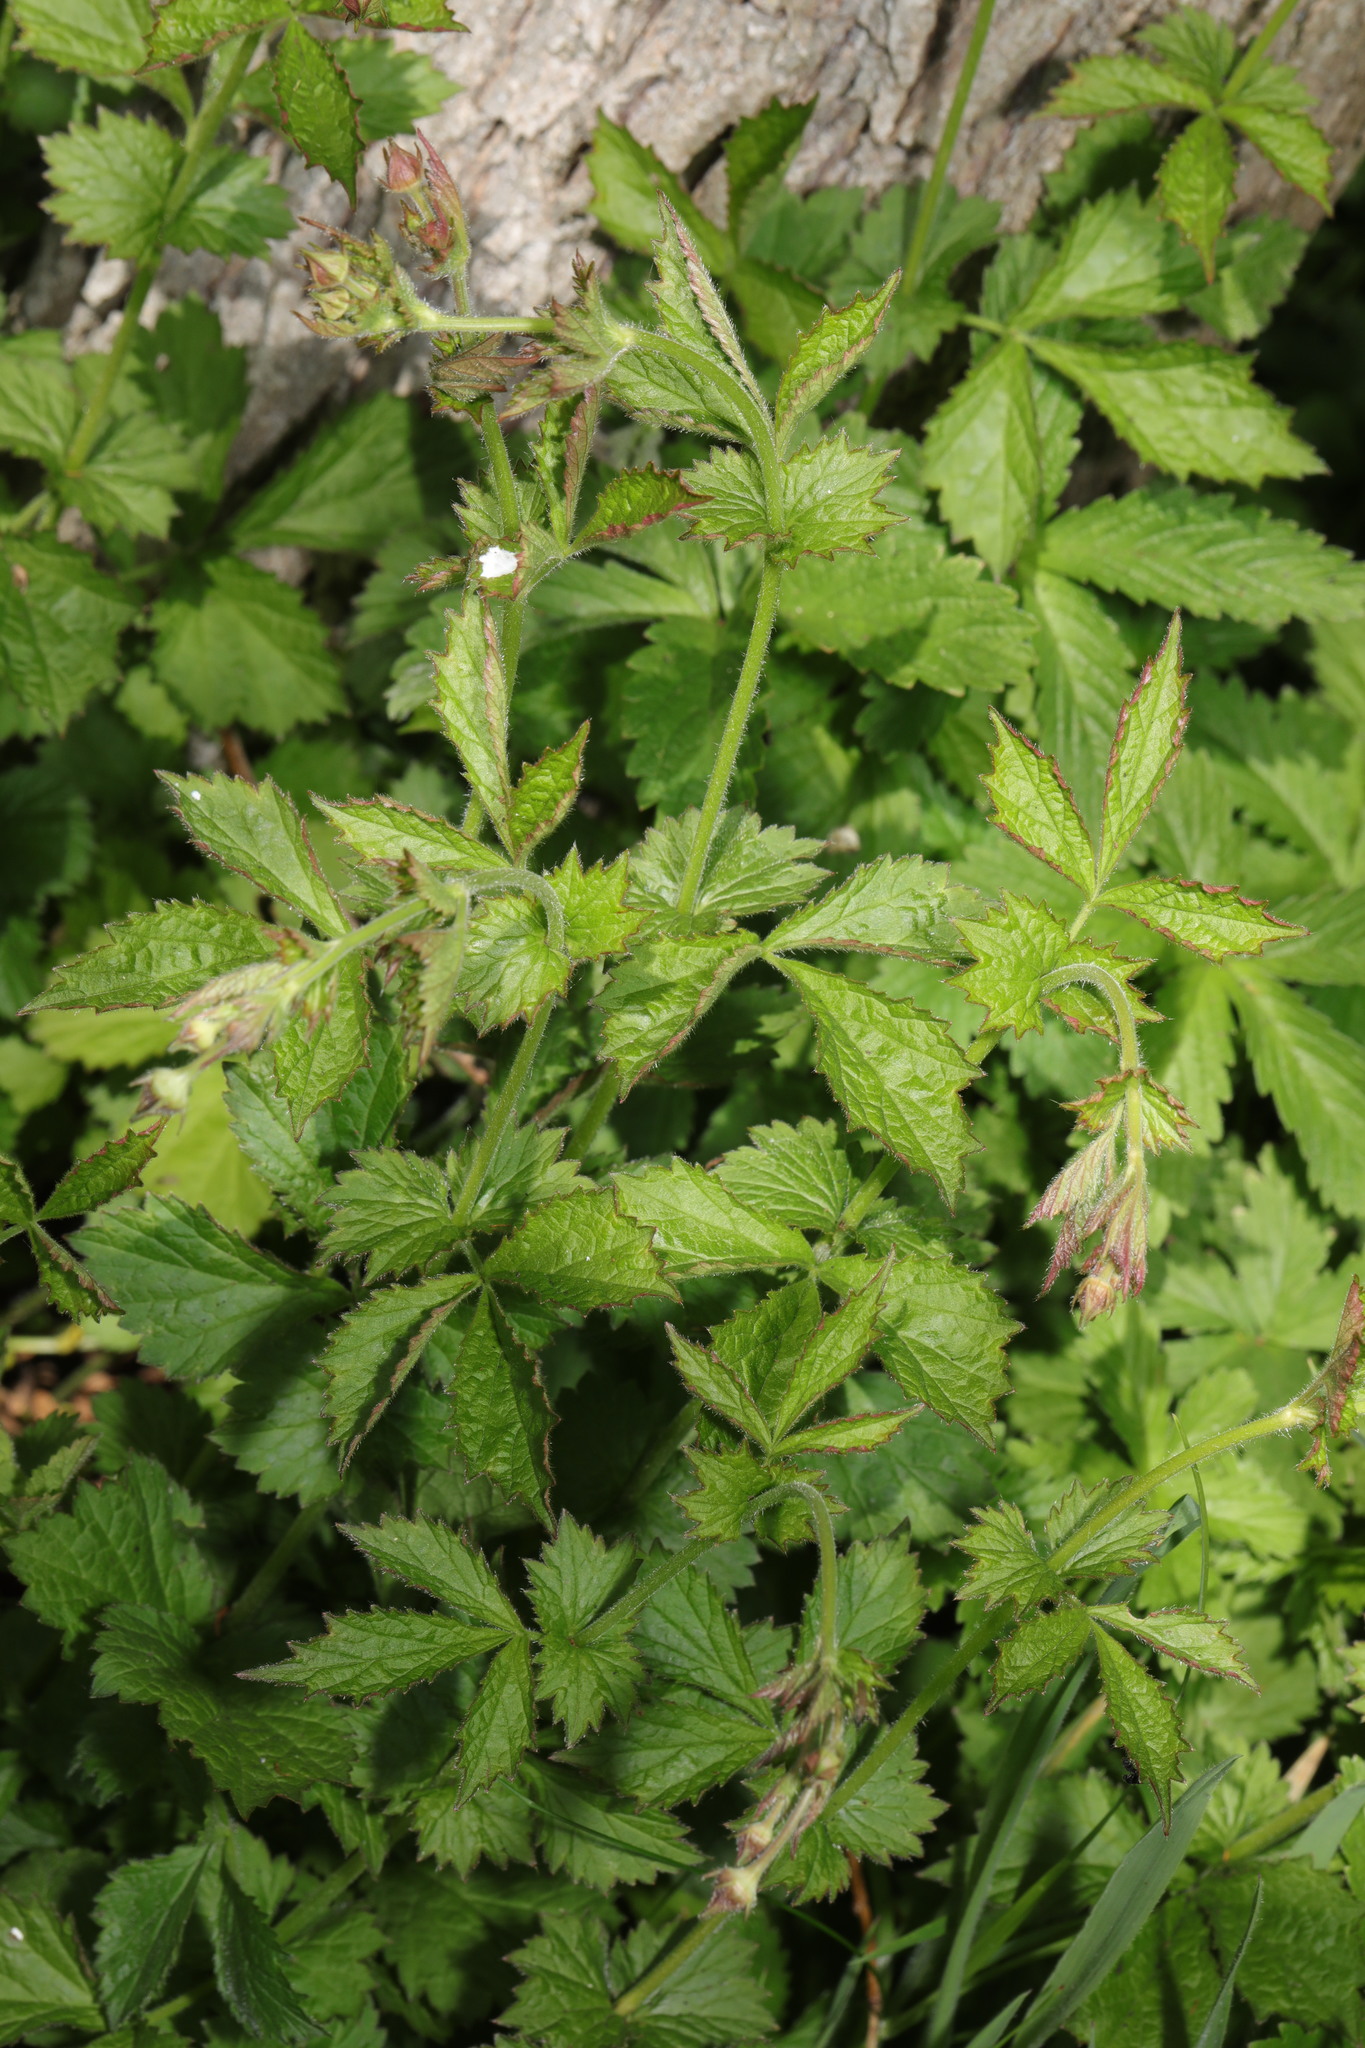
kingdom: Plantae
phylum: Tracheophyta
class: Magnoliopsida
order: Rosales
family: Rosaceae
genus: Geum
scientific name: Geum urbanum
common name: Wood avens
